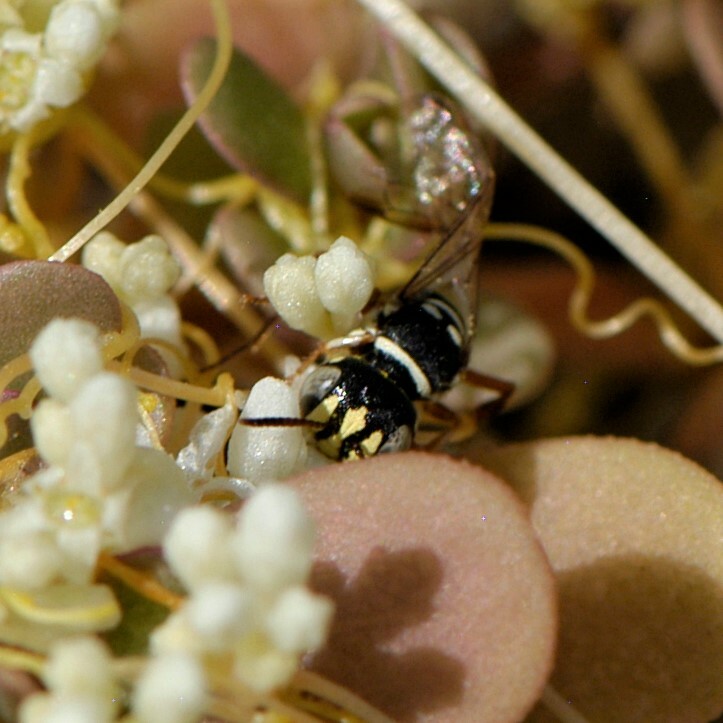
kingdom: Animalia
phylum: Arthropoda
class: Insecta
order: Hymenoptera
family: Crabronidae
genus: Eucerceris
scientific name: Eucerceris tricolor
